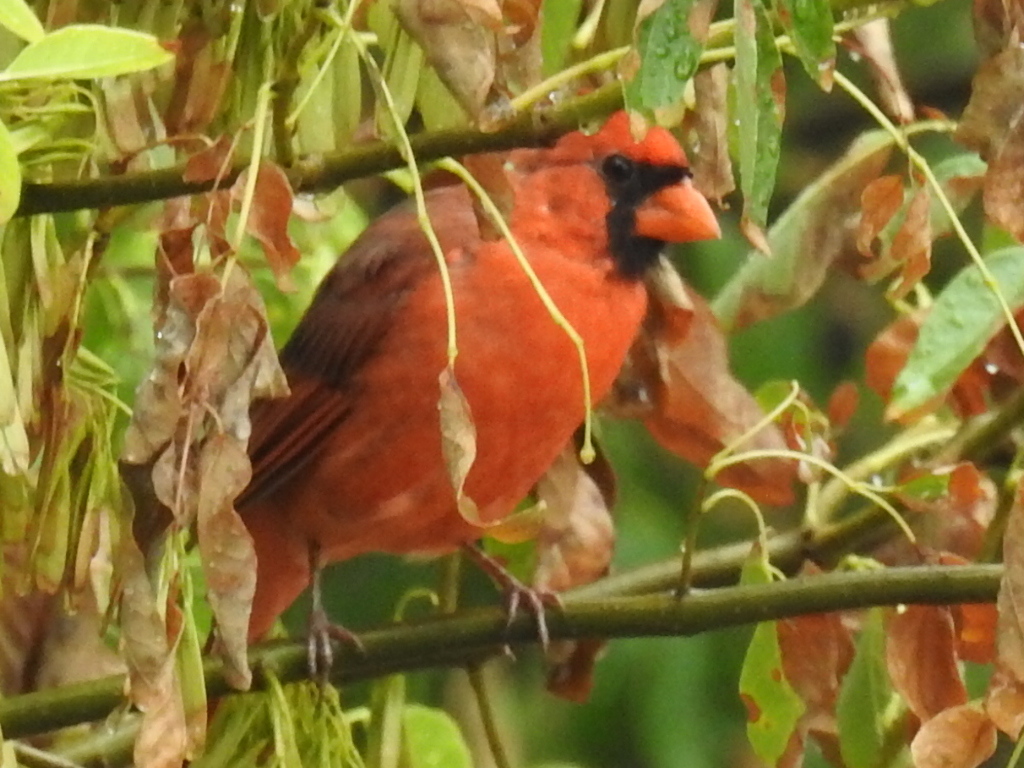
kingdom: Animalia
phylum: Chordata
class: Aves
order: Passeriformes
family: Cardinalidae
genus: Cardinalis
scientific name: Cardinalis cardinalis
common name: Northern cardinal
